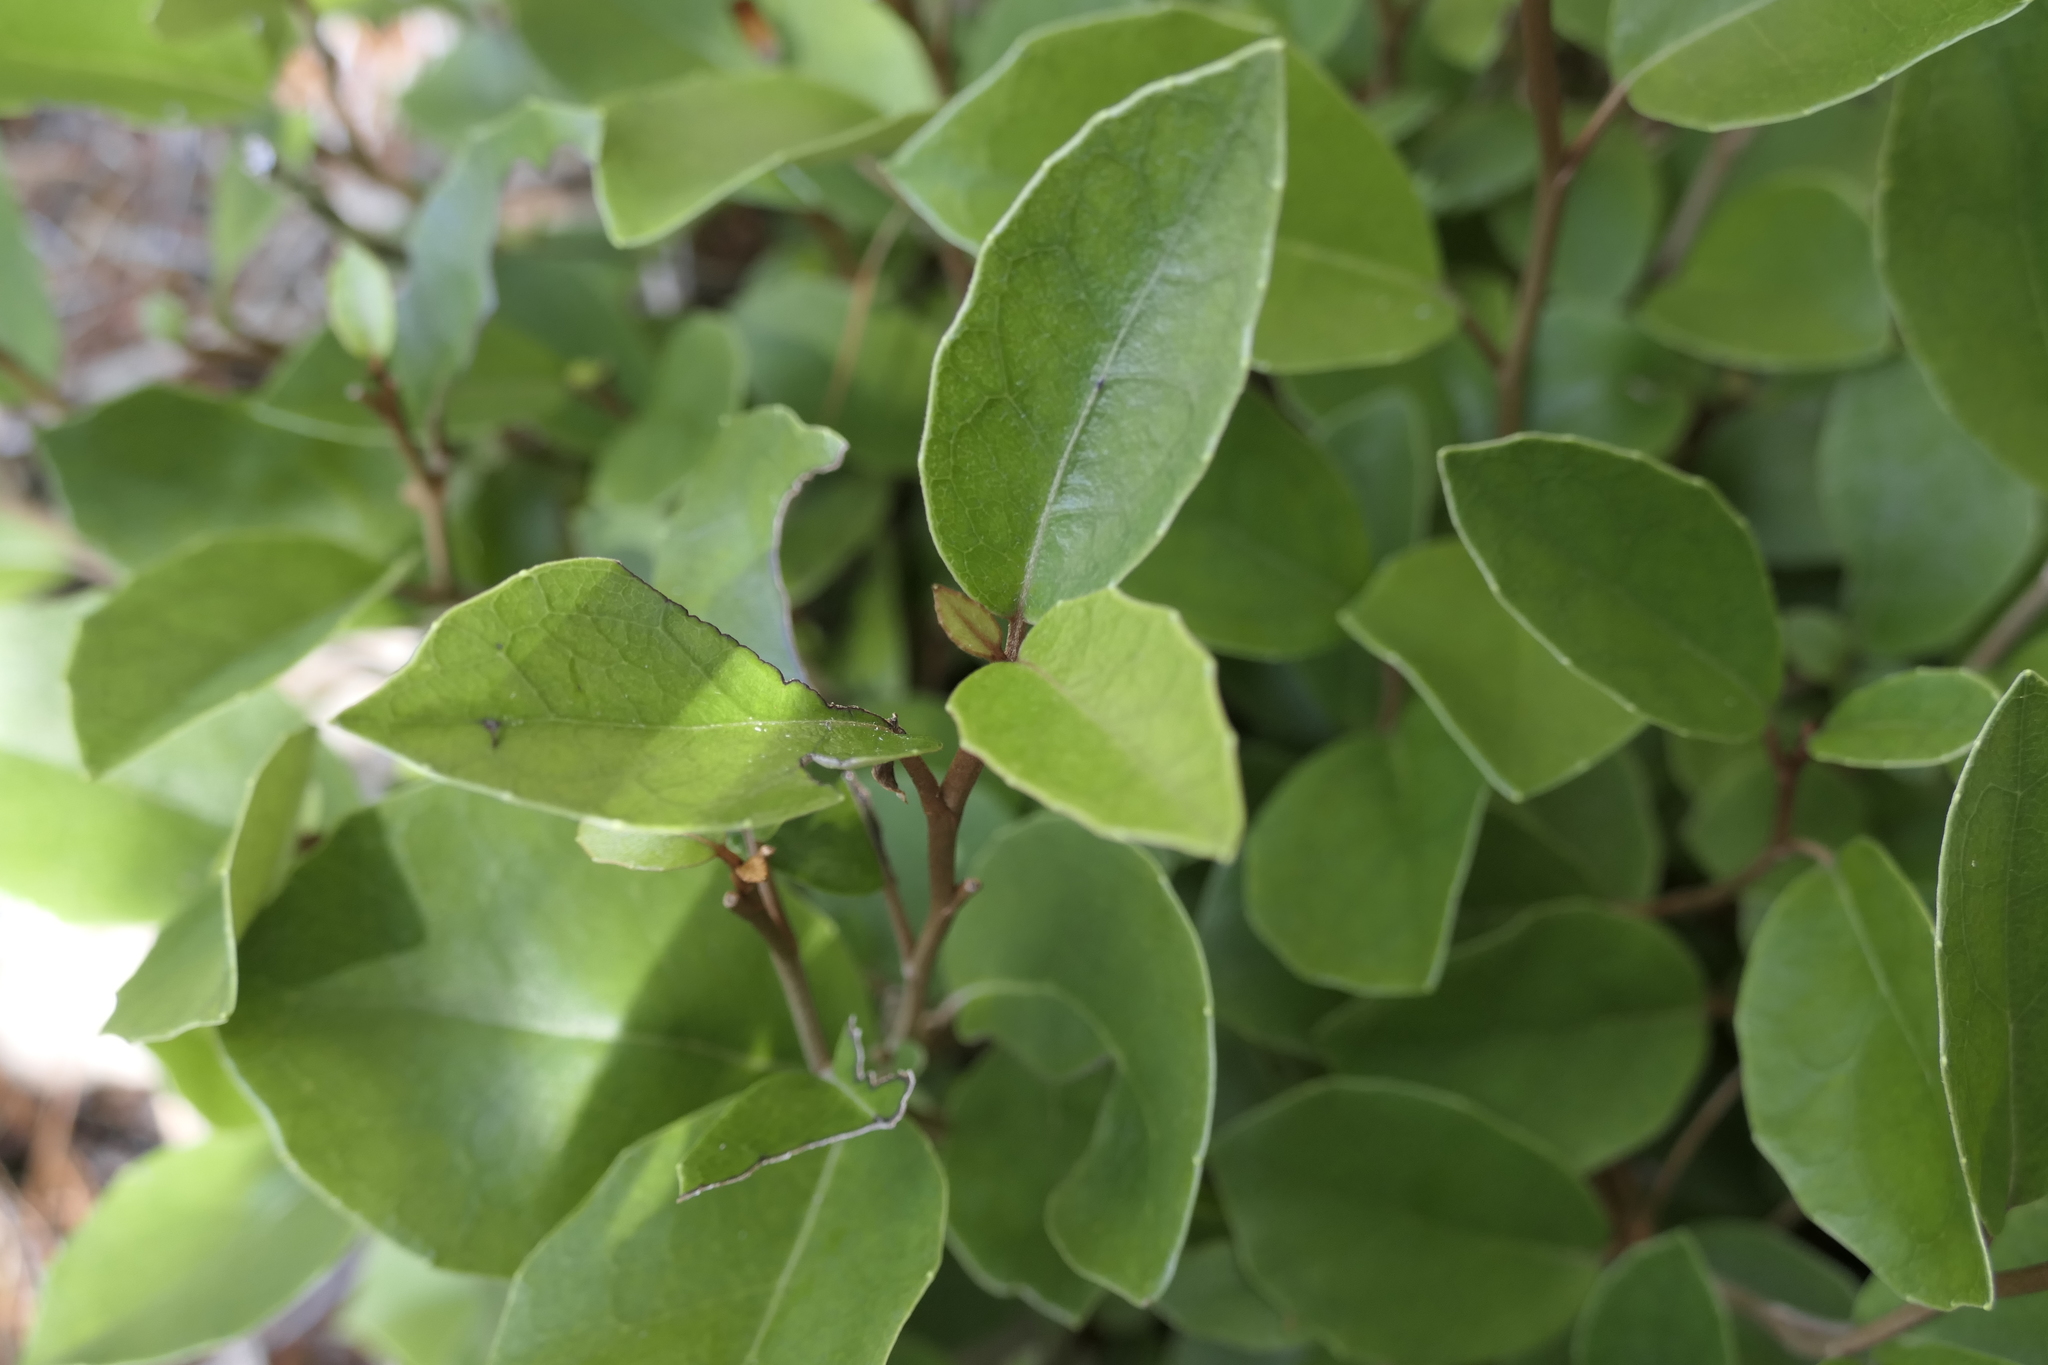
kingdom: Plantae
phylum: Tracheophyta
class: Magnoliopsida
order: Asterales
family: Asteraceae
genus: Olearia
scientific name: Olearia arborescens
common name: Glossy tree daisy
